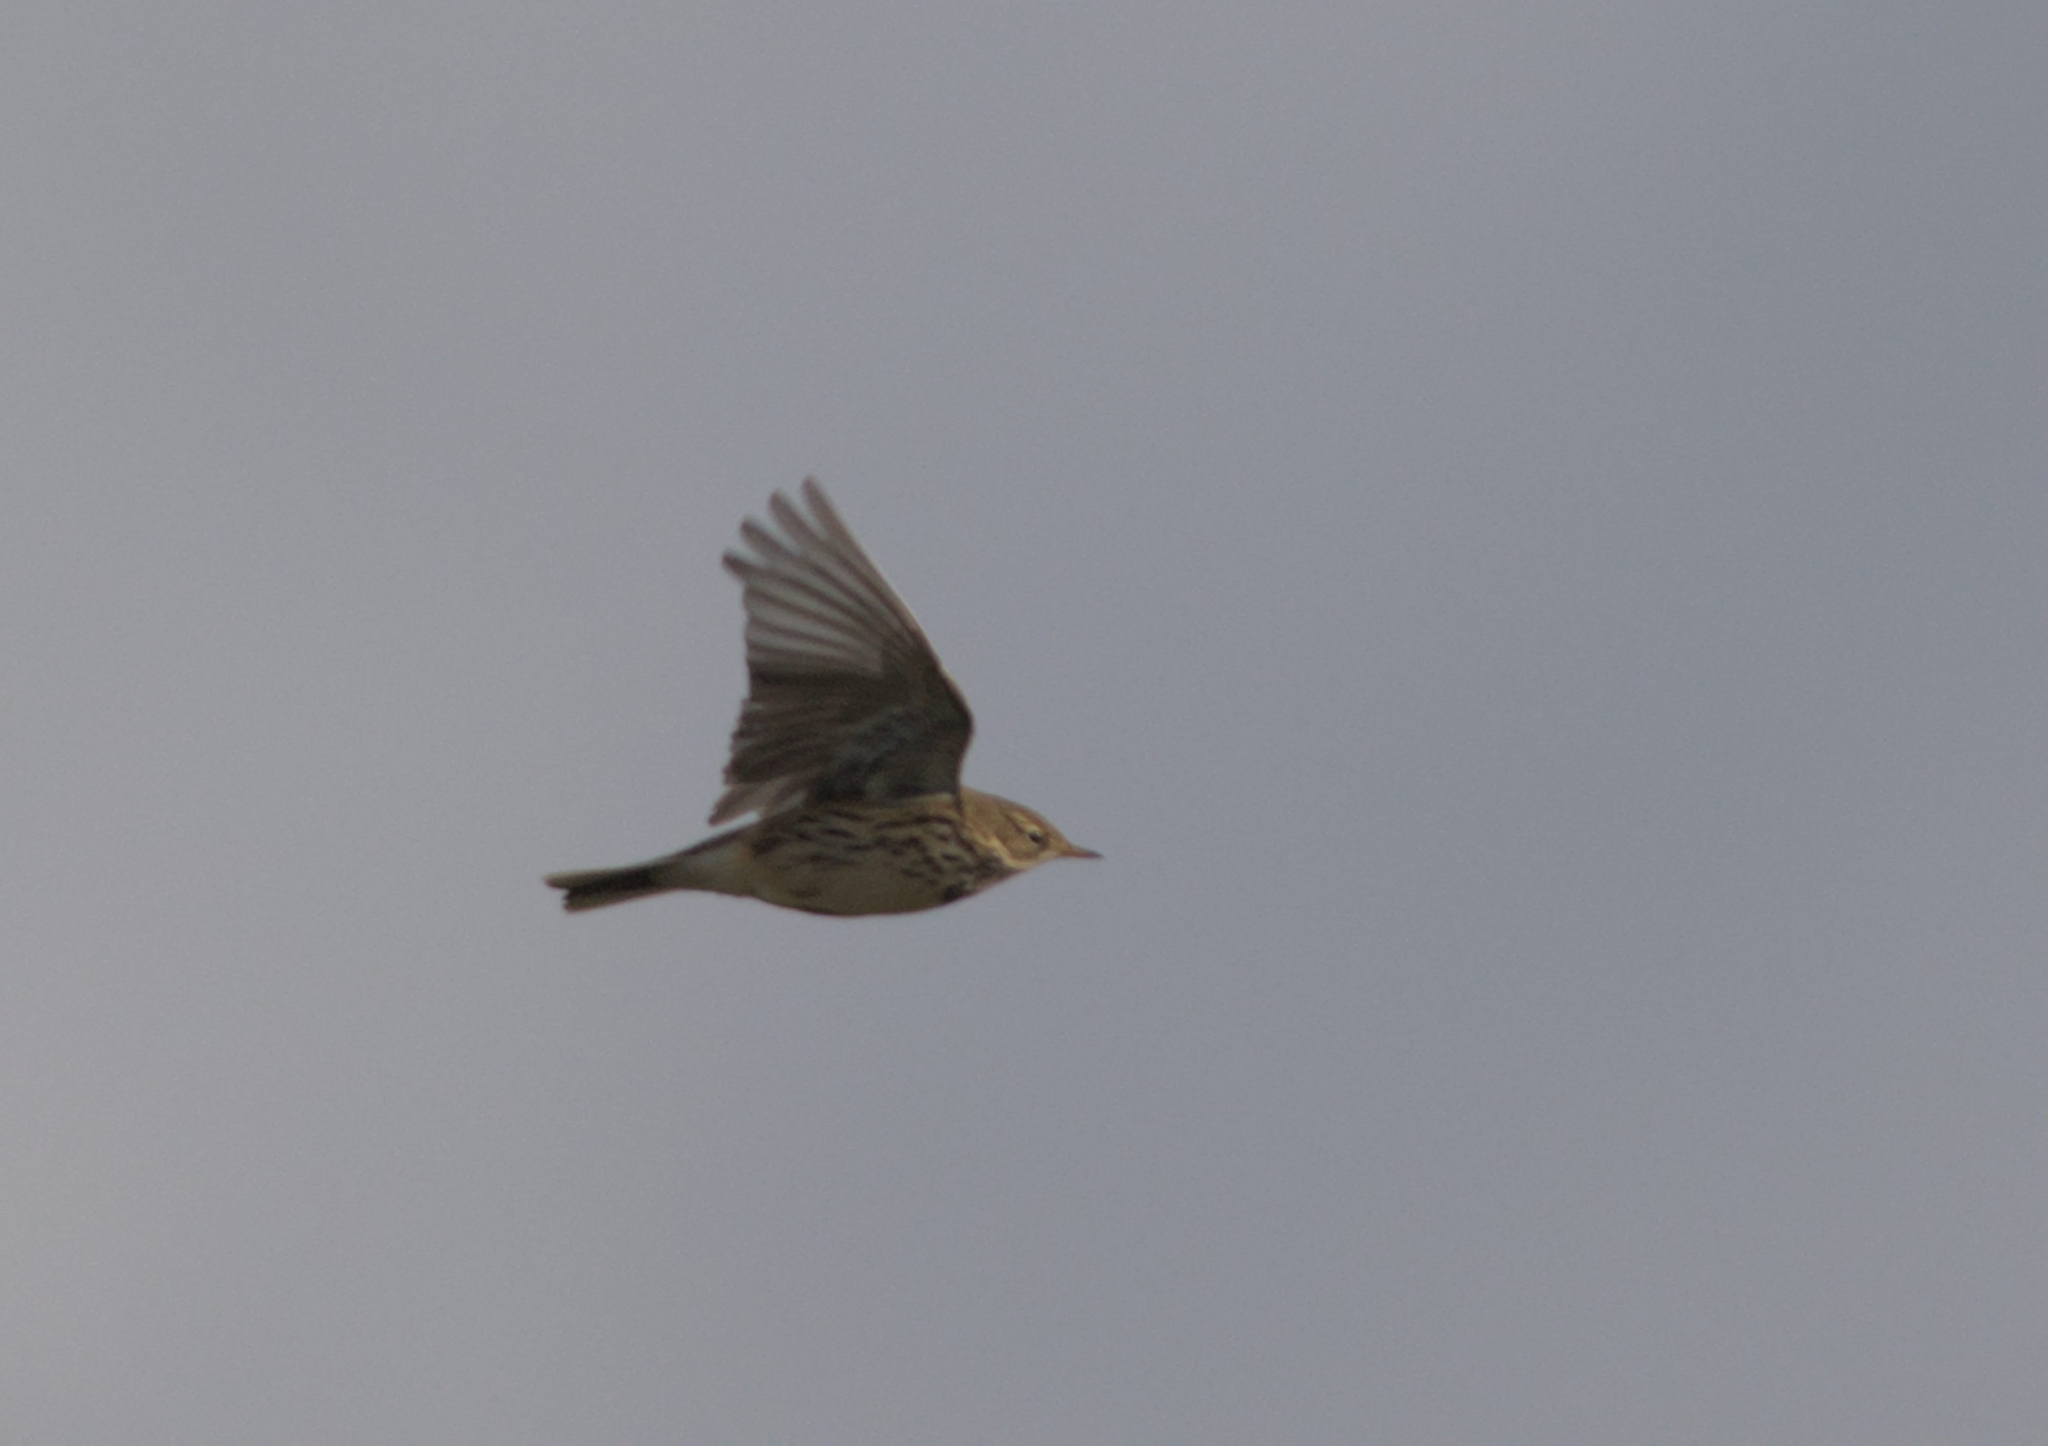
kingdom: Animalia
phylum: Chordata
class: Aves
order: Passeriformes
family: Motacillidae
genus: Anthus
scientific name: Anthus pratensis
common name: Meadow pipit
